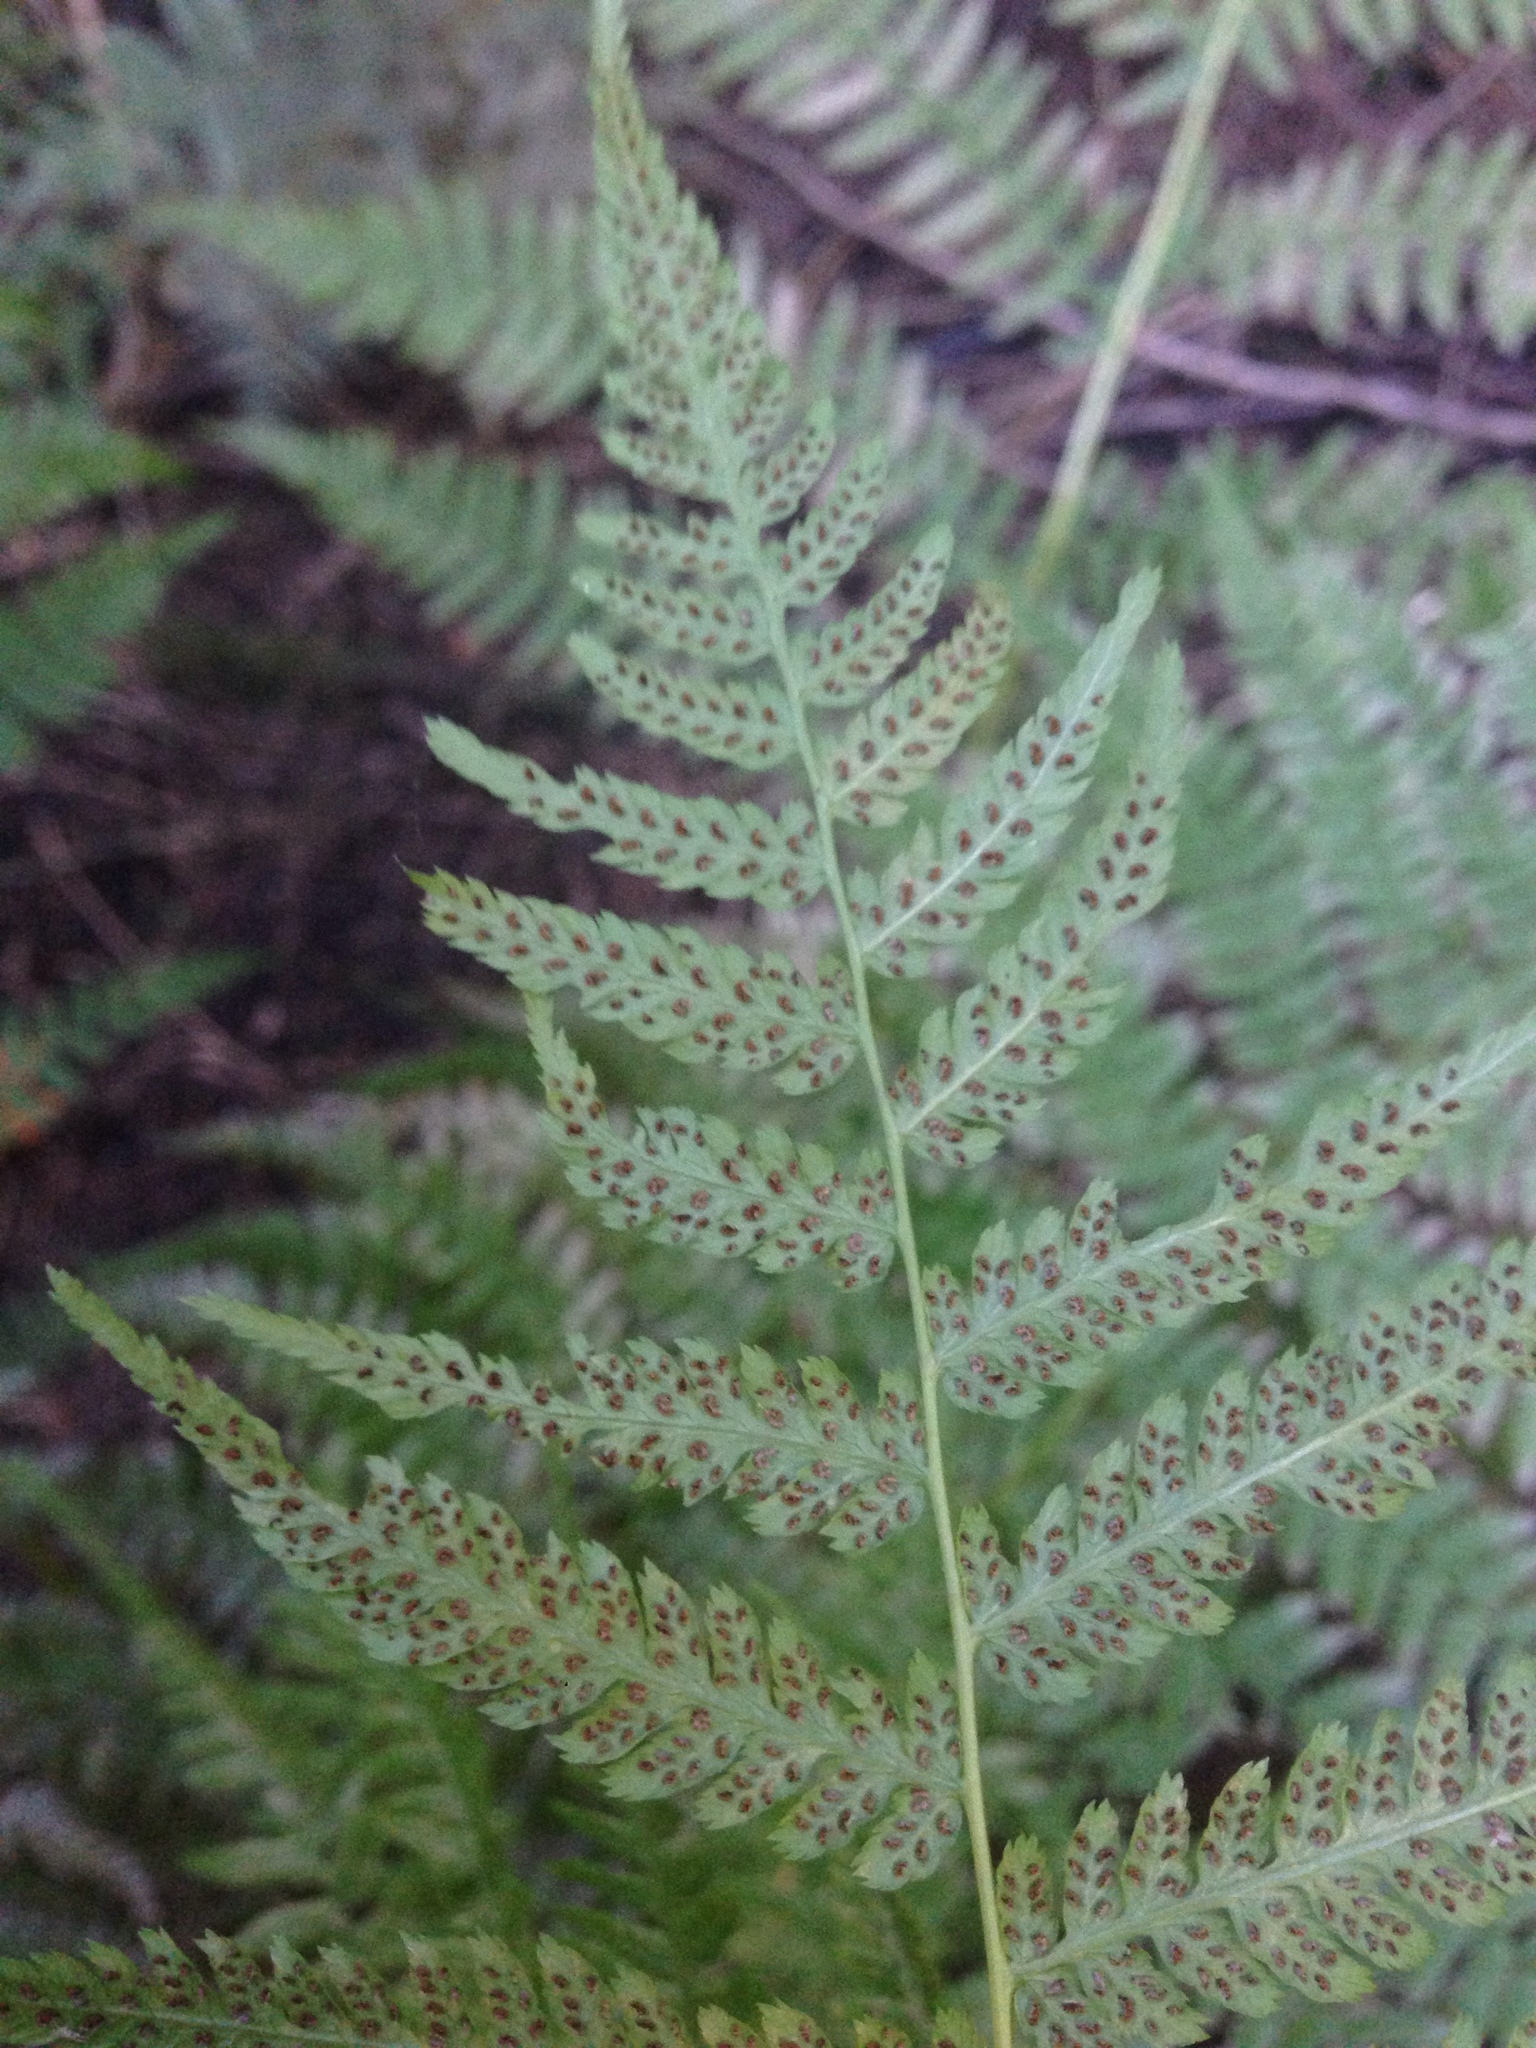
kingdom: Plantae
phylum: Tracheophyta
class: Polypodiopsida
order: Polypodiales
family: Athyriaceae
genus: Athyrium
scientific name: Athyrium filix-femina
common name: Lady fern
